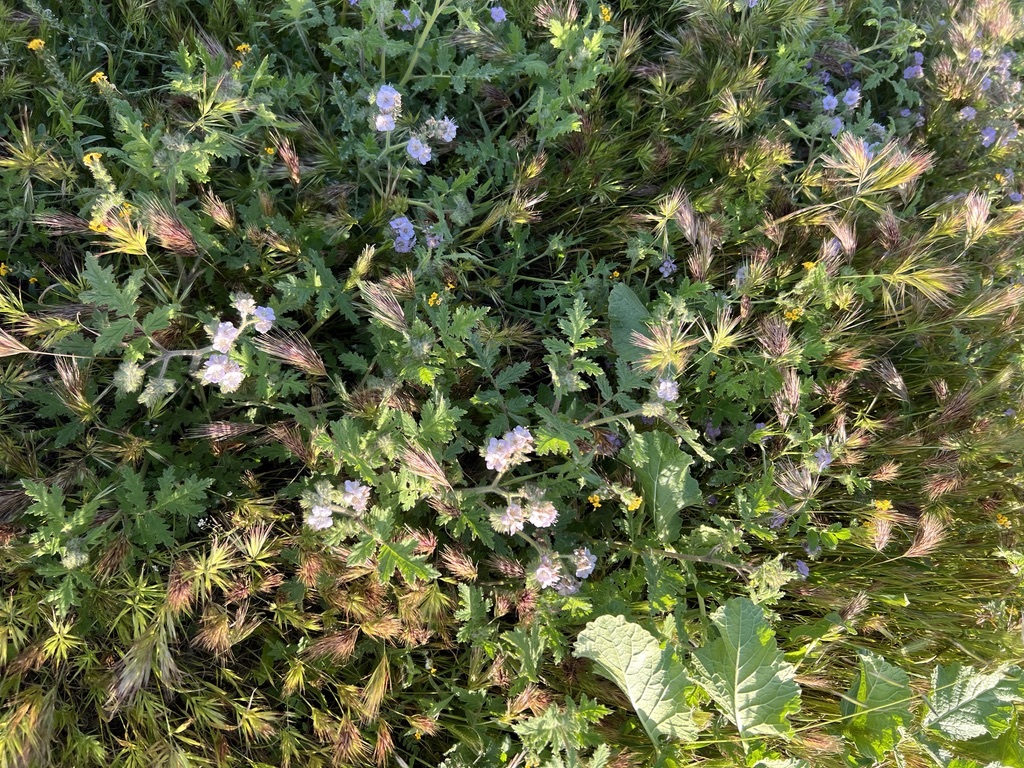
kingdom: Plantae
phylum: Tracheophyta
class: Magnoliopsida
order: Boraginales
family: Hydrophyllaceae
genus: Phacelia
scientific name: Phacelia cicutaria
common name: Caterpillar phacelia
